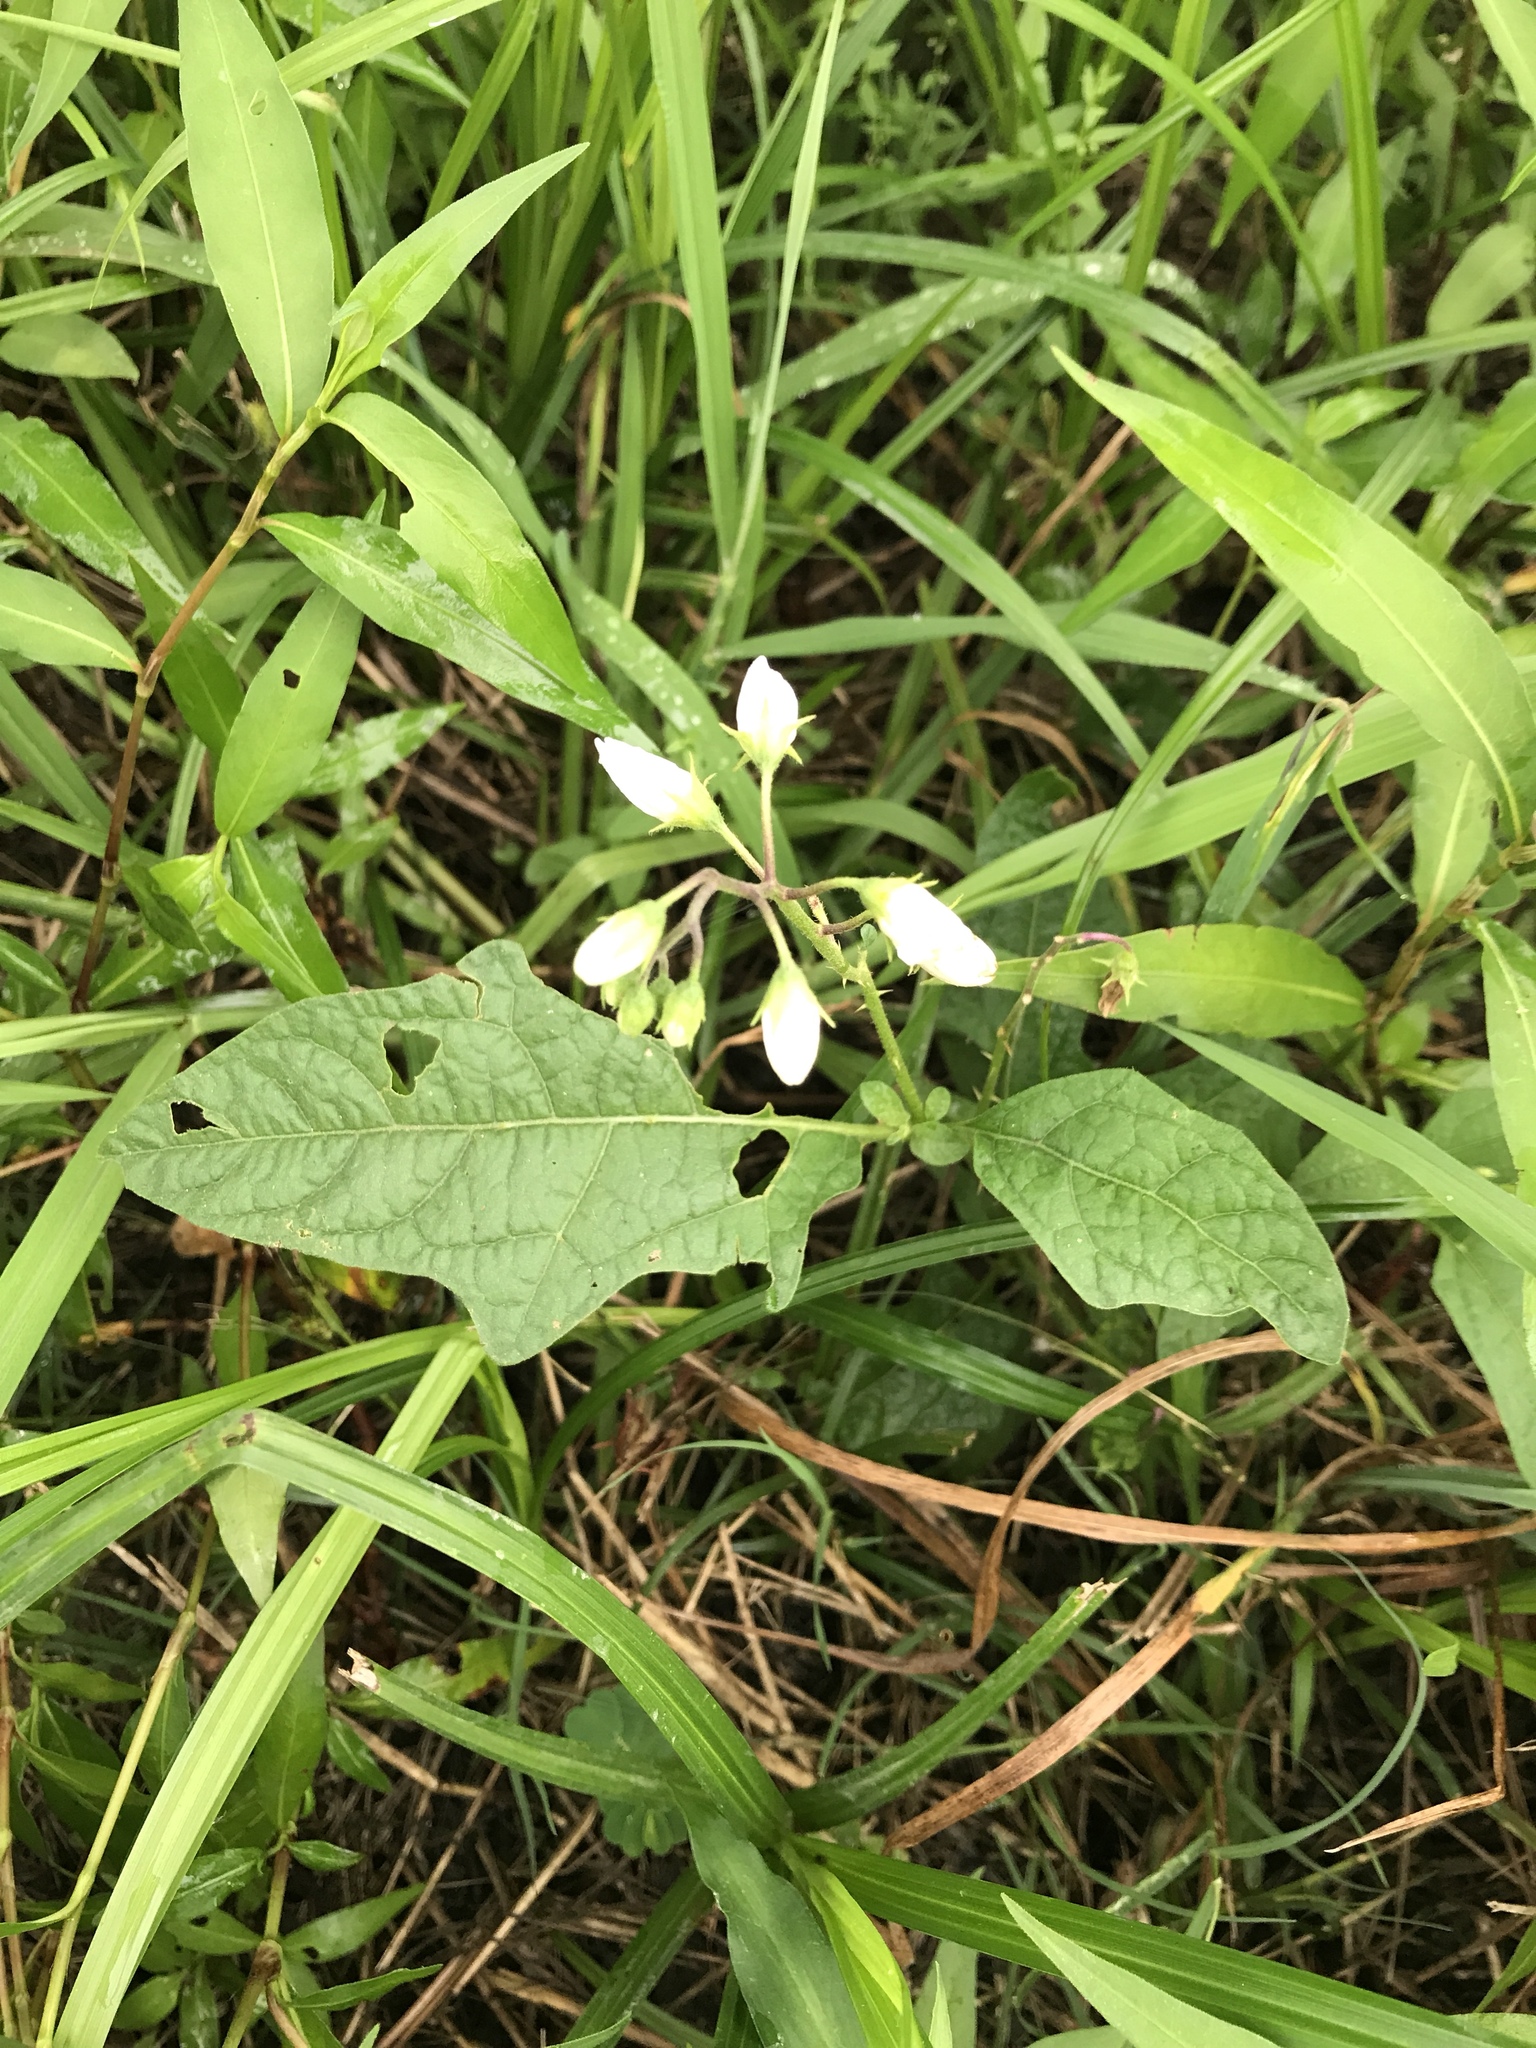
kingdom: Plantae
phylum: Tracheophyta
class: Magnoliopsida
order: Solanales
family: Solanaceae
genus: Solanum
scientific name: Solanum carolinense
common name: Horse-nettle
